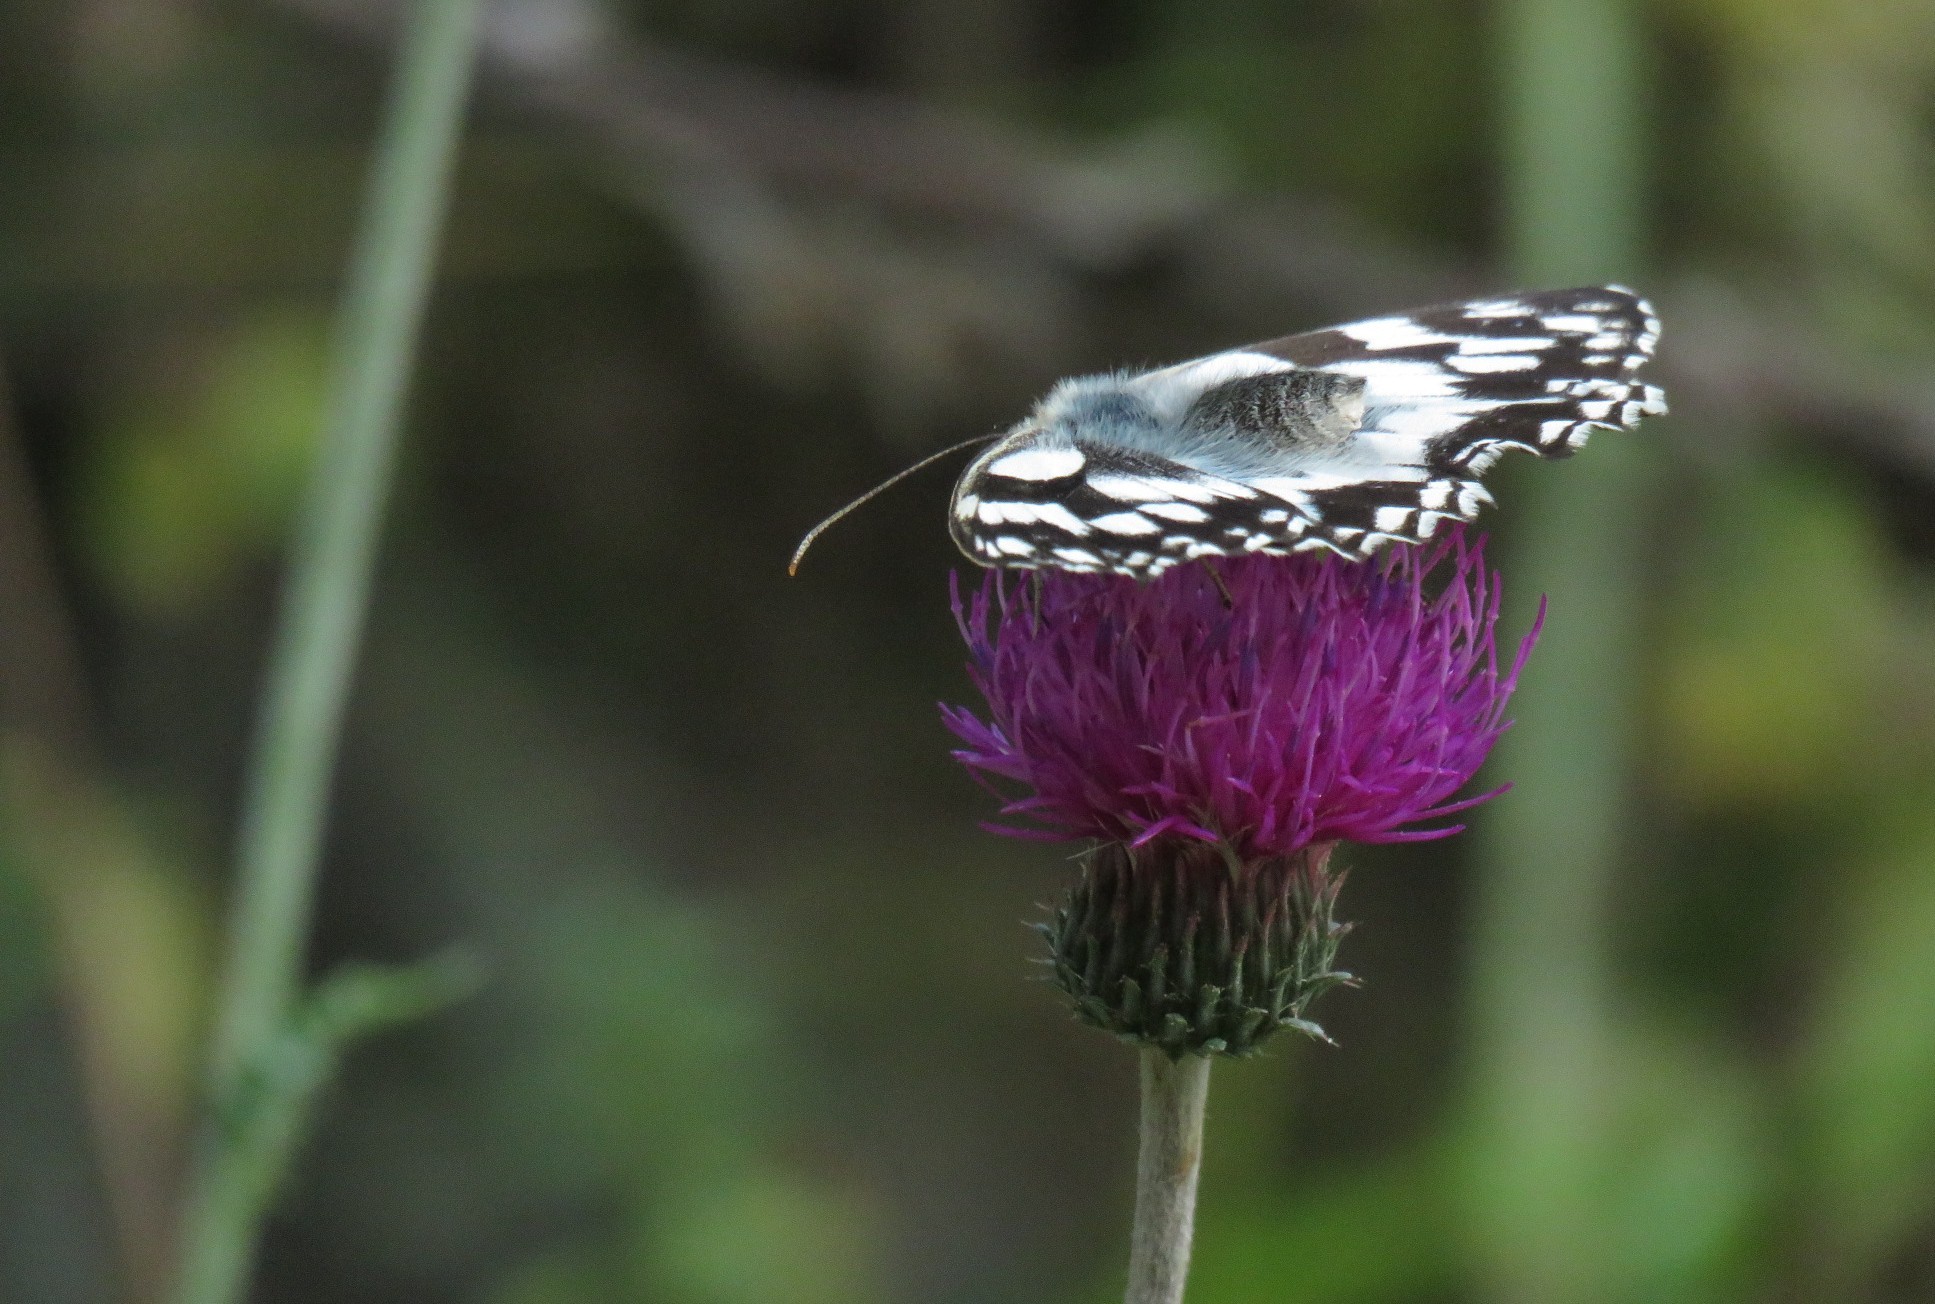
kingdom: Animalia
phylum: Arthropoda
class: Insecta
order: Lepidoptera
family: Nymphalidae
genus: Melanargia
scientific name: Melanargia galathea
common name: Marbled white
